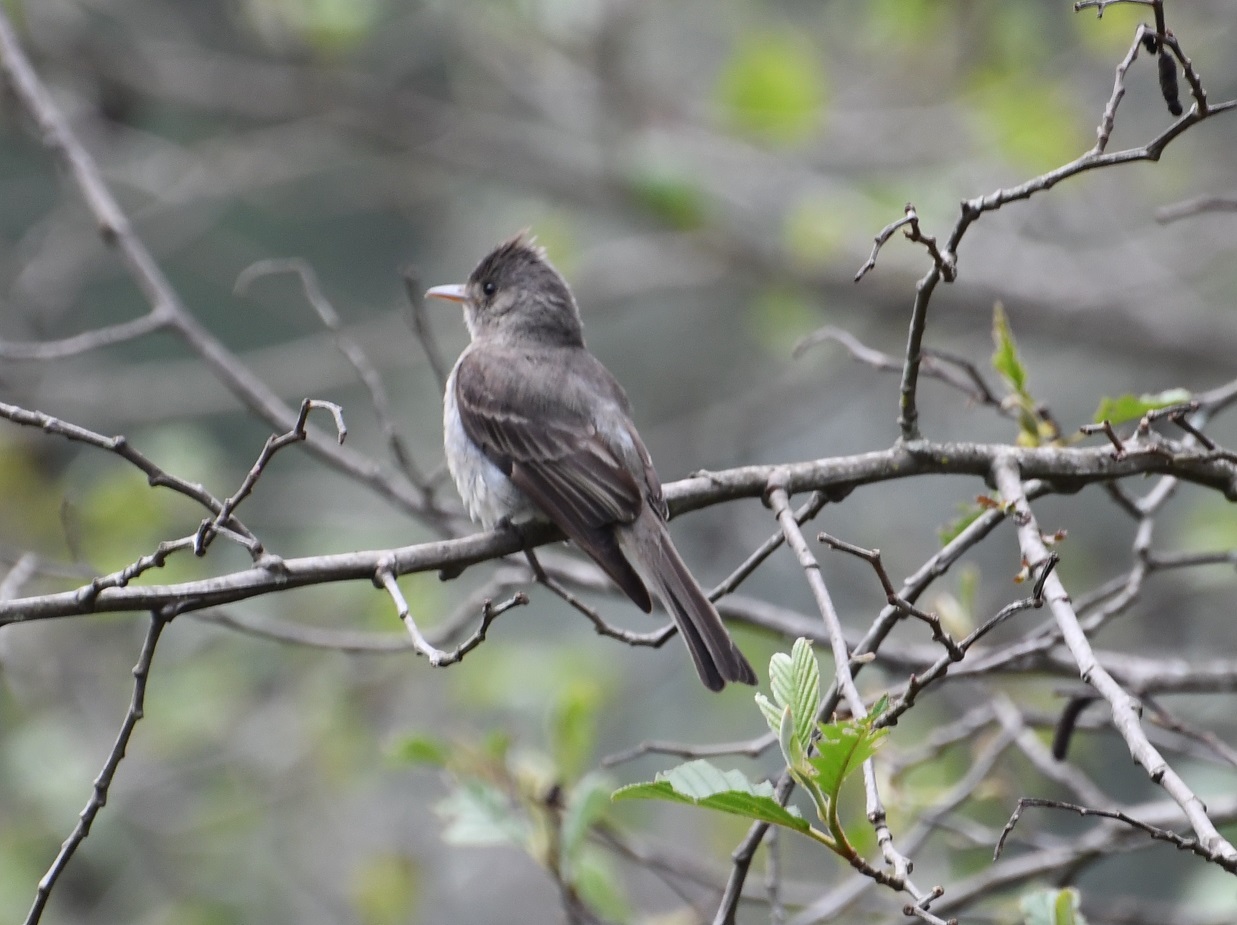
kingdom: Animalia
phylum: Chordata
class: Aves
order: Passeriformes
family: Tyrannidae
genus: Contopus
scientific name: Contopus pertinax
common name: Greater pewee
